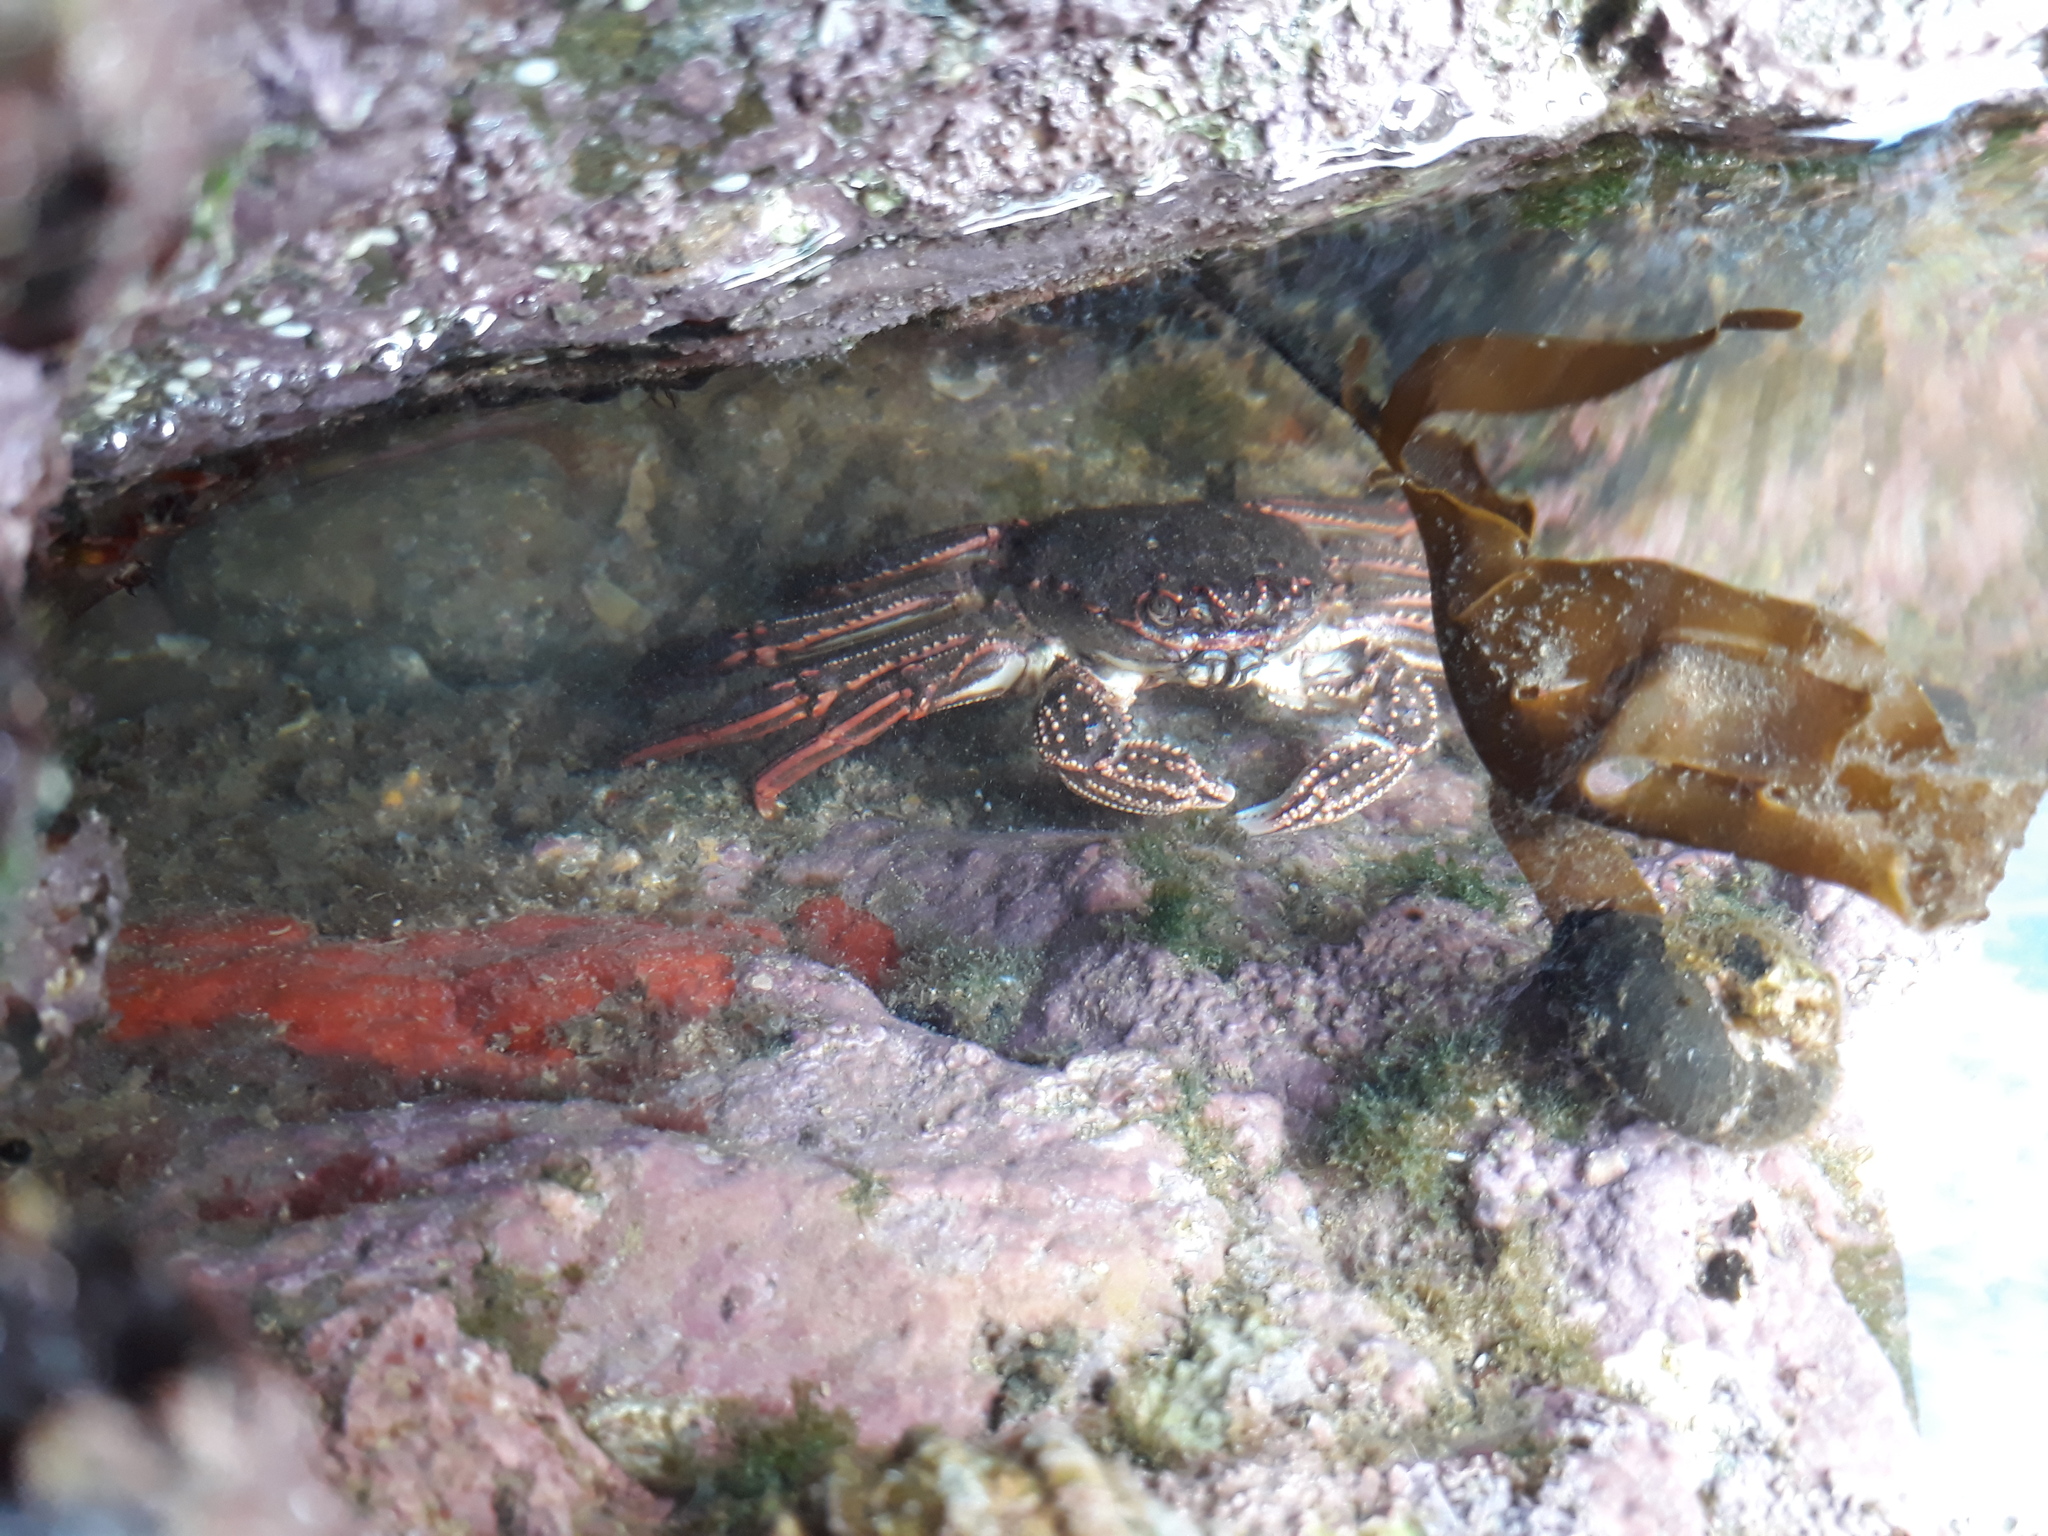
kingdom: Animalia
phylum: Arthropoda
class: Malacostraca
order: Decapoda
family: Plagusiidae
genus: Guinusia
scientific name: Guinusia chabrus
